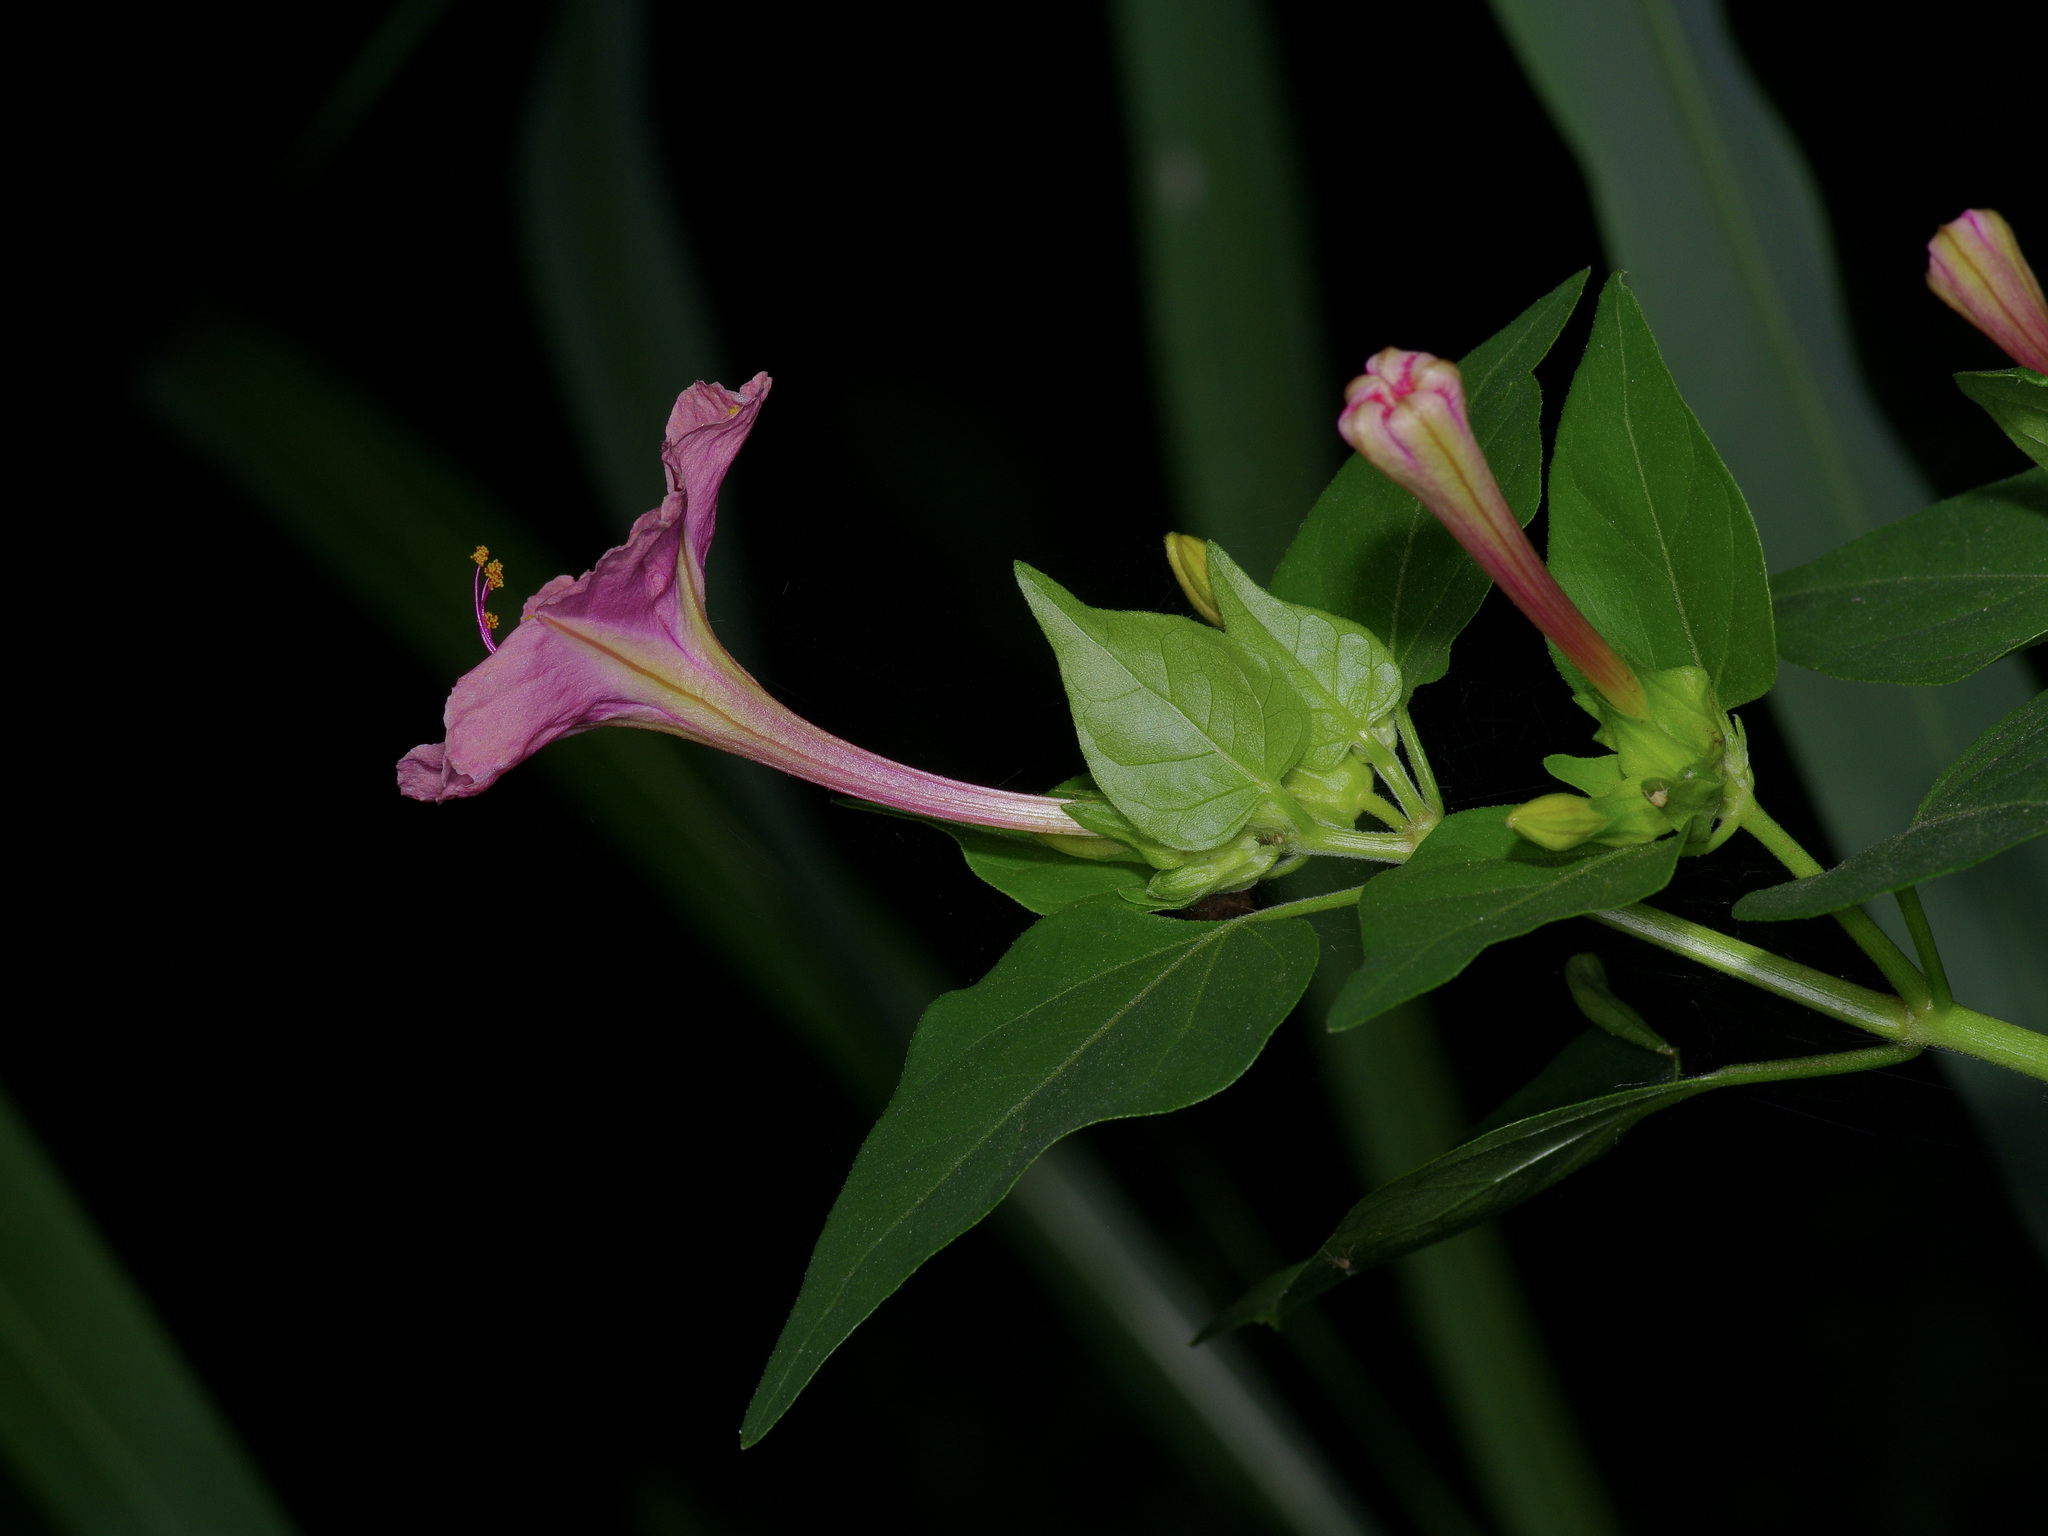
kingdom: Plantae
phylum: Tracheophyta
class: Magnoliopsida
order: Caryophyllales
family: Nyctaginaceae
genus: Mirabilis
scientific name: Mirabilis jalapa
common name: Marvel-of-peru
